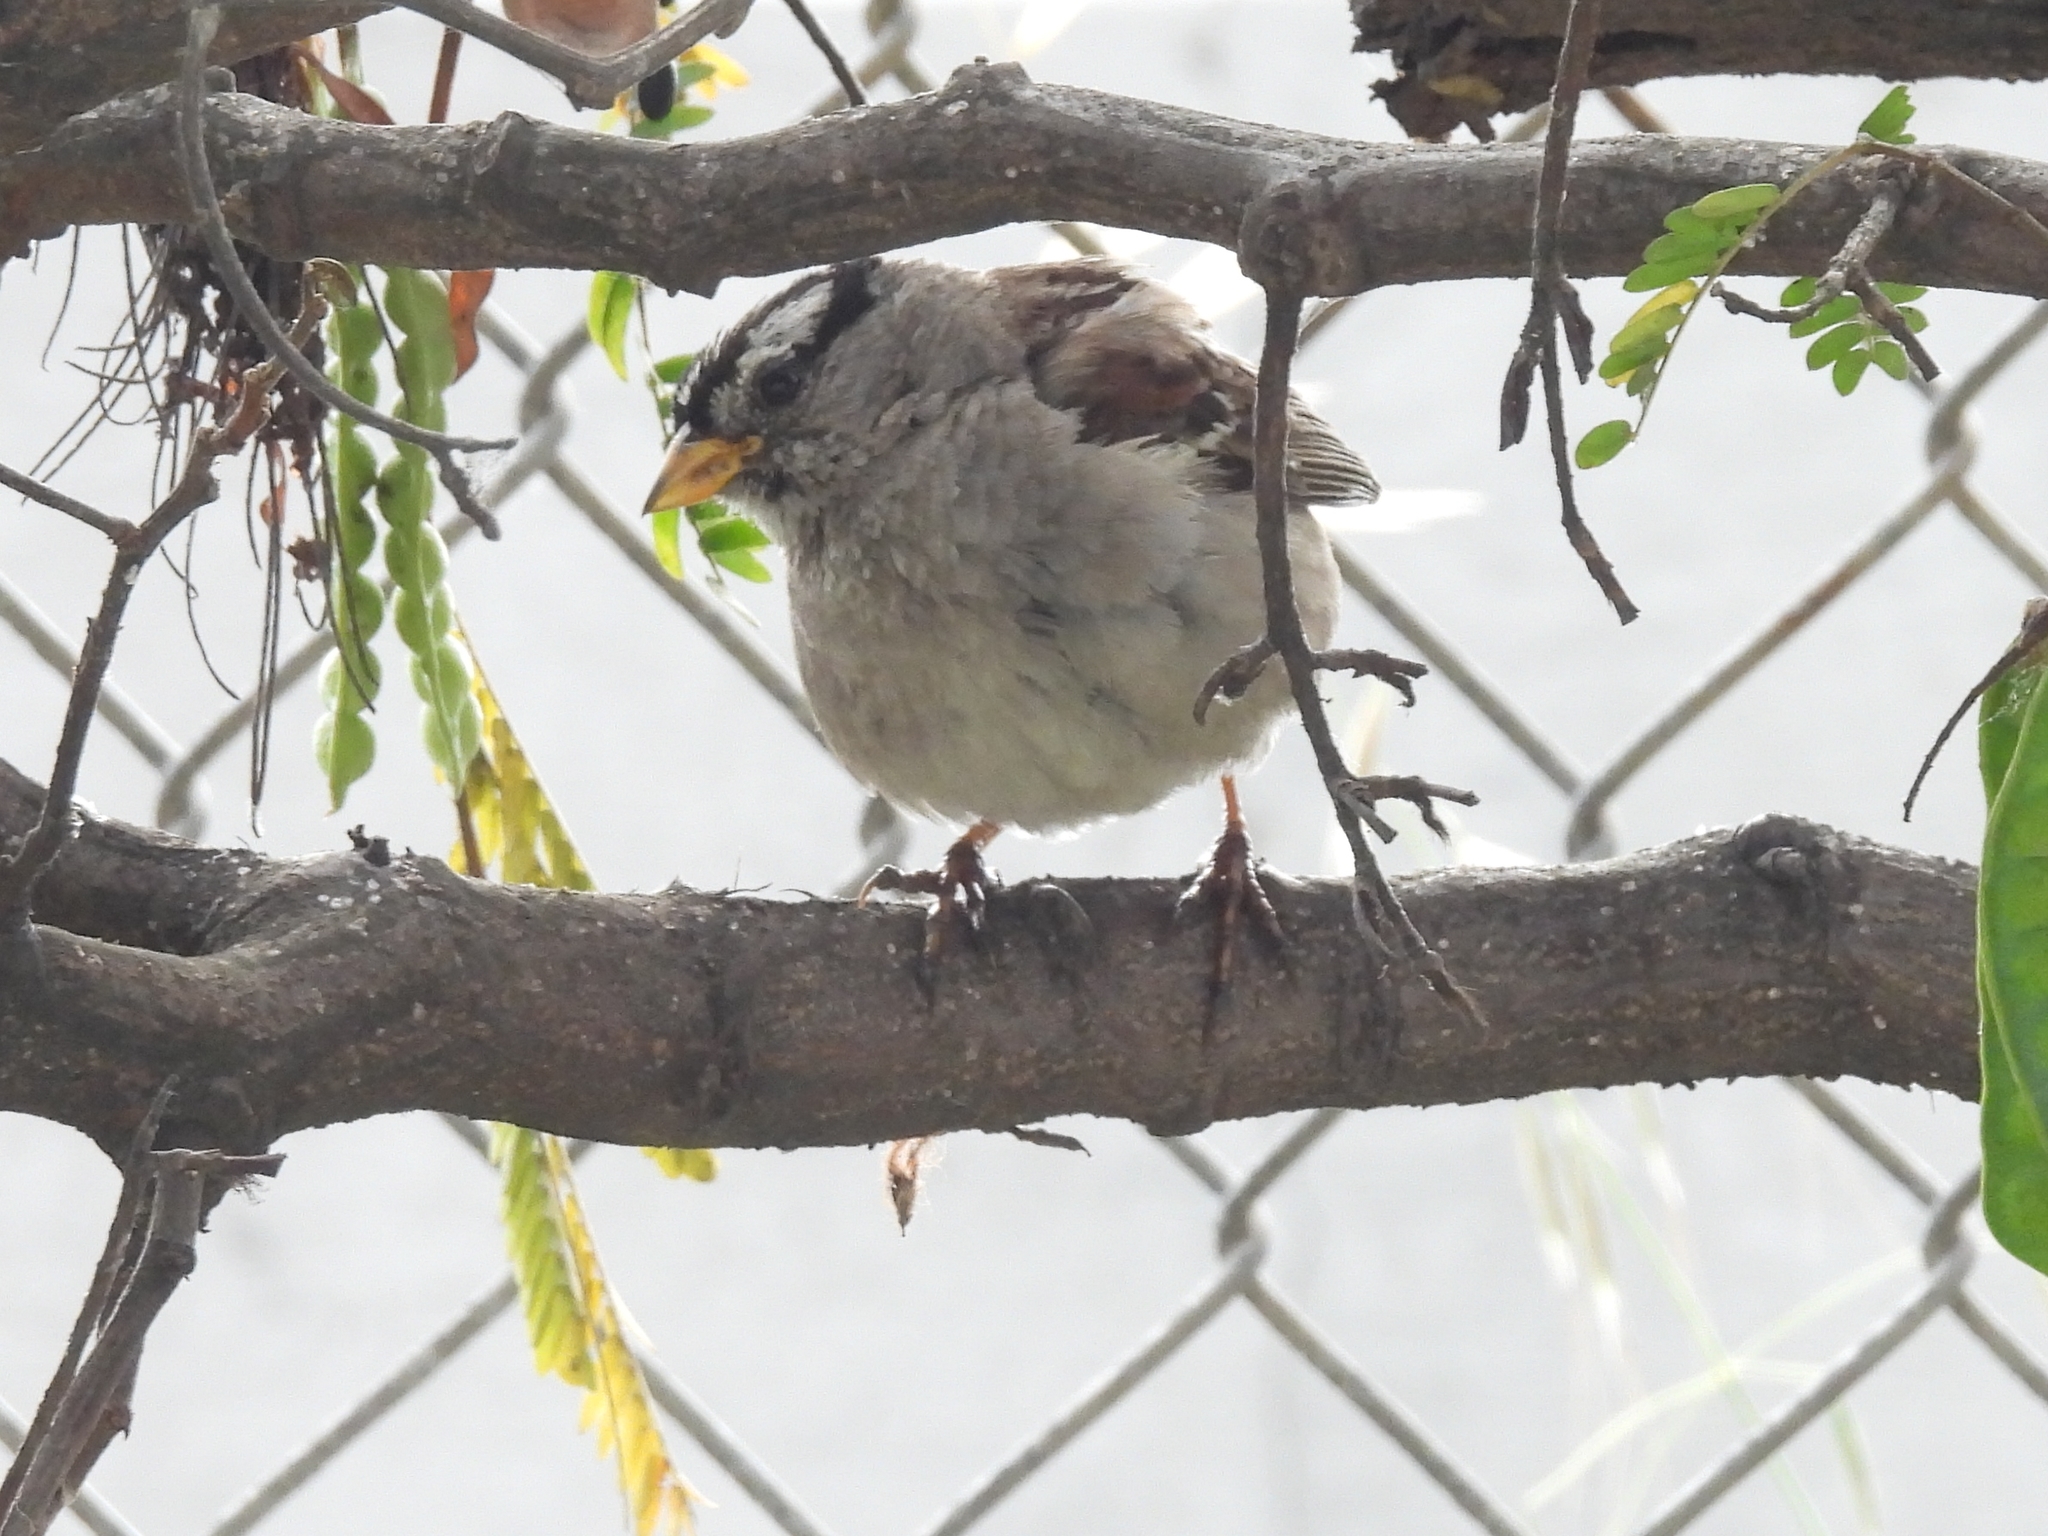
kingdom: Animalia
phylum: Chordata
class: Aves
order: Passeriformes
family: Passerellidae
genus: Zonotrichia
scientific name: Zonotrichia leucophrys
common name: White-crowned sparrow
